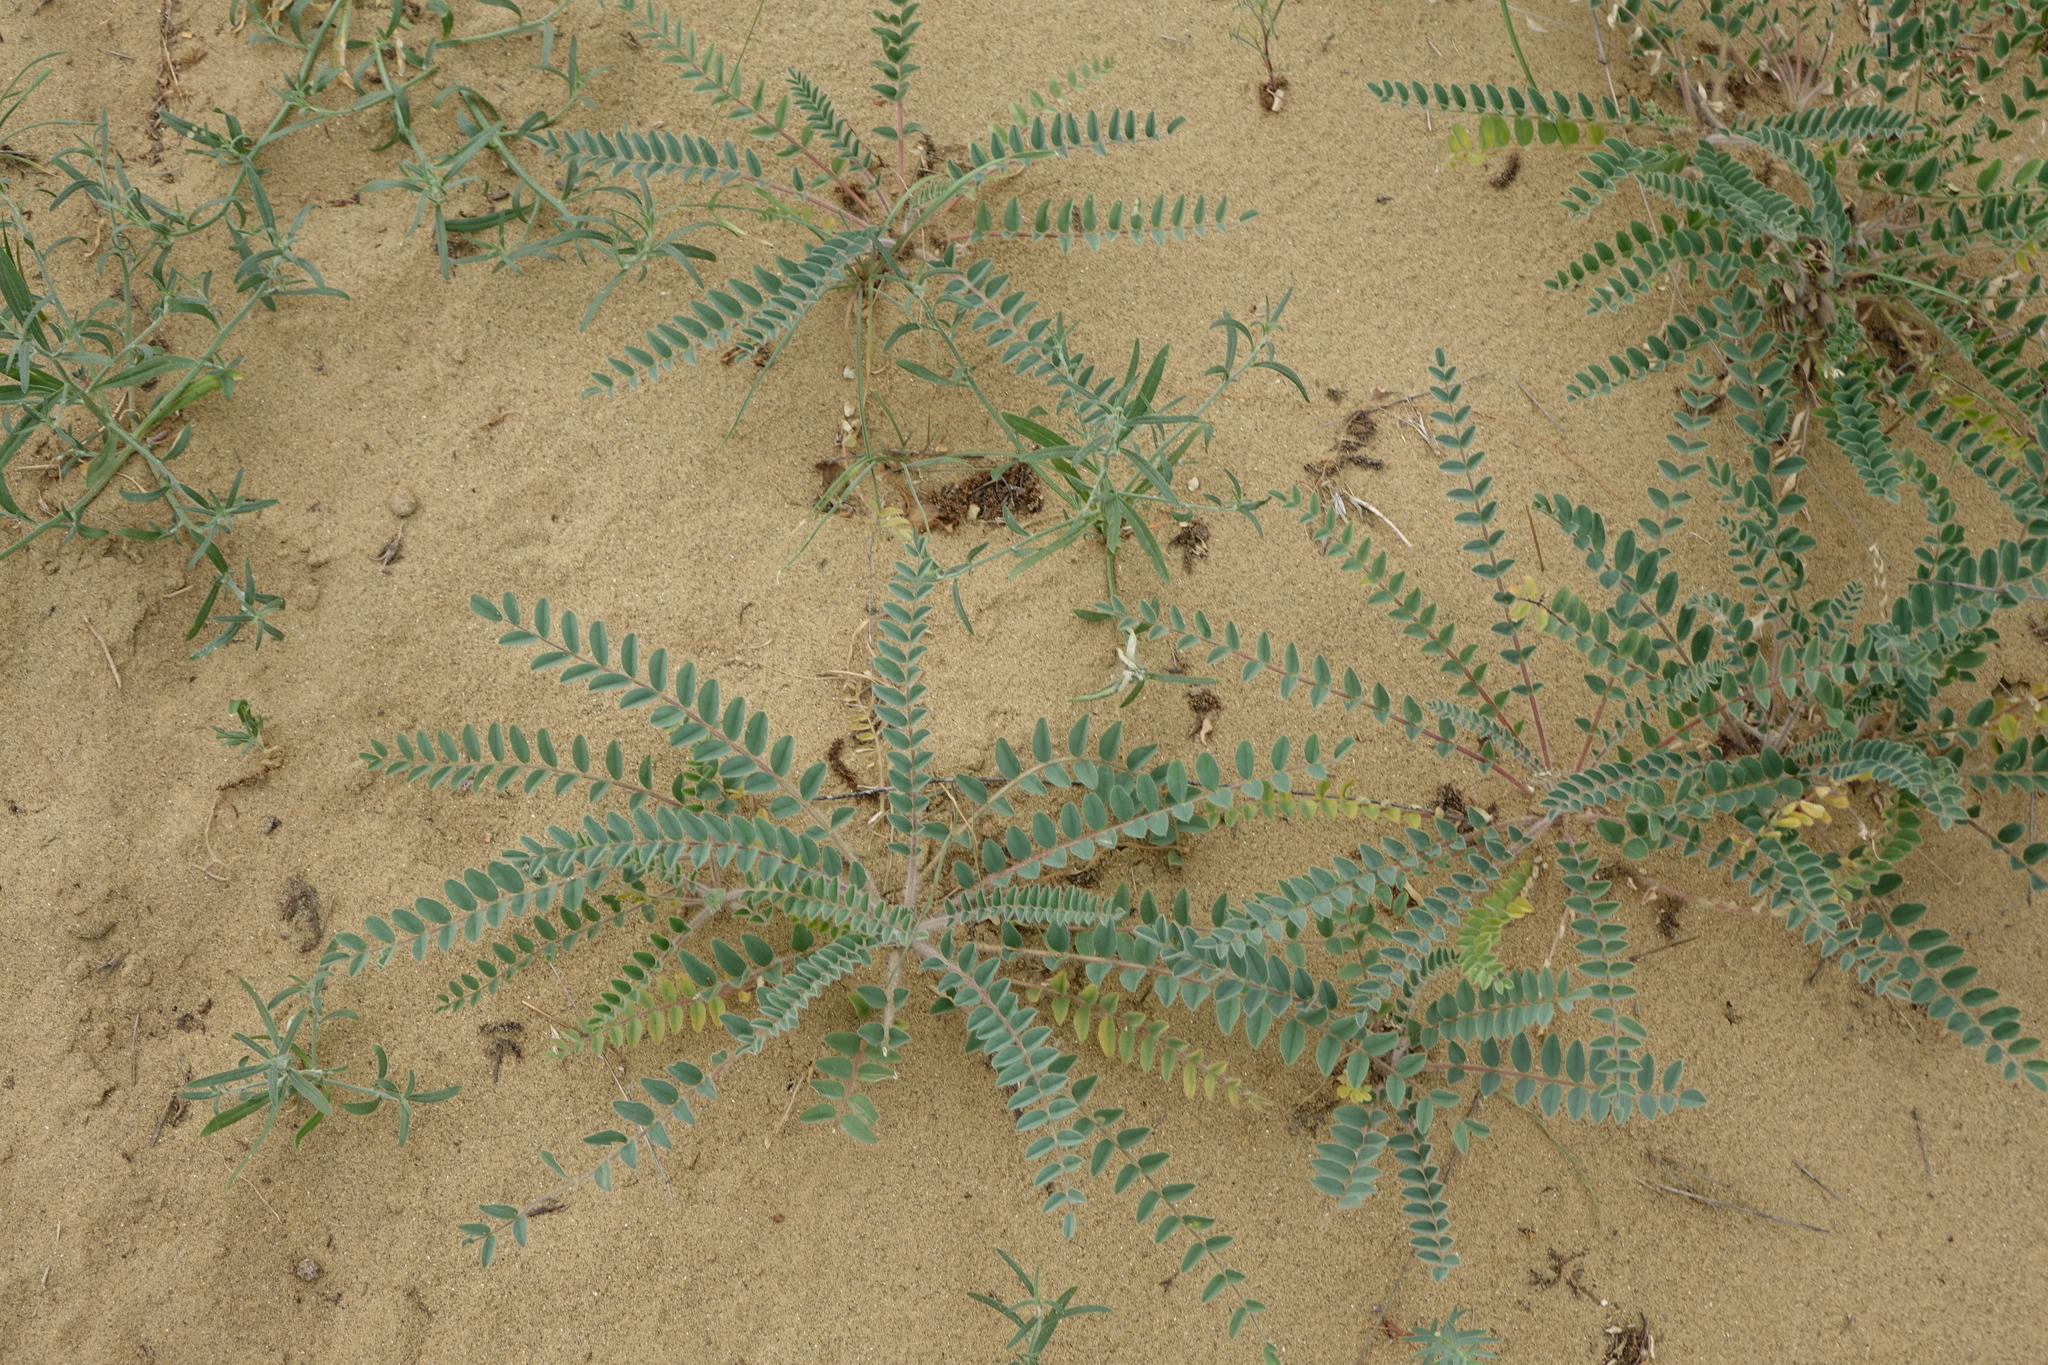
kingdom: Plantae
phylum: Tracheophyta
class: Magnoliopsida
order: Fabales
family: Fabaceae
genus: Astragalus
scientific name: Astragalus longipetalus
